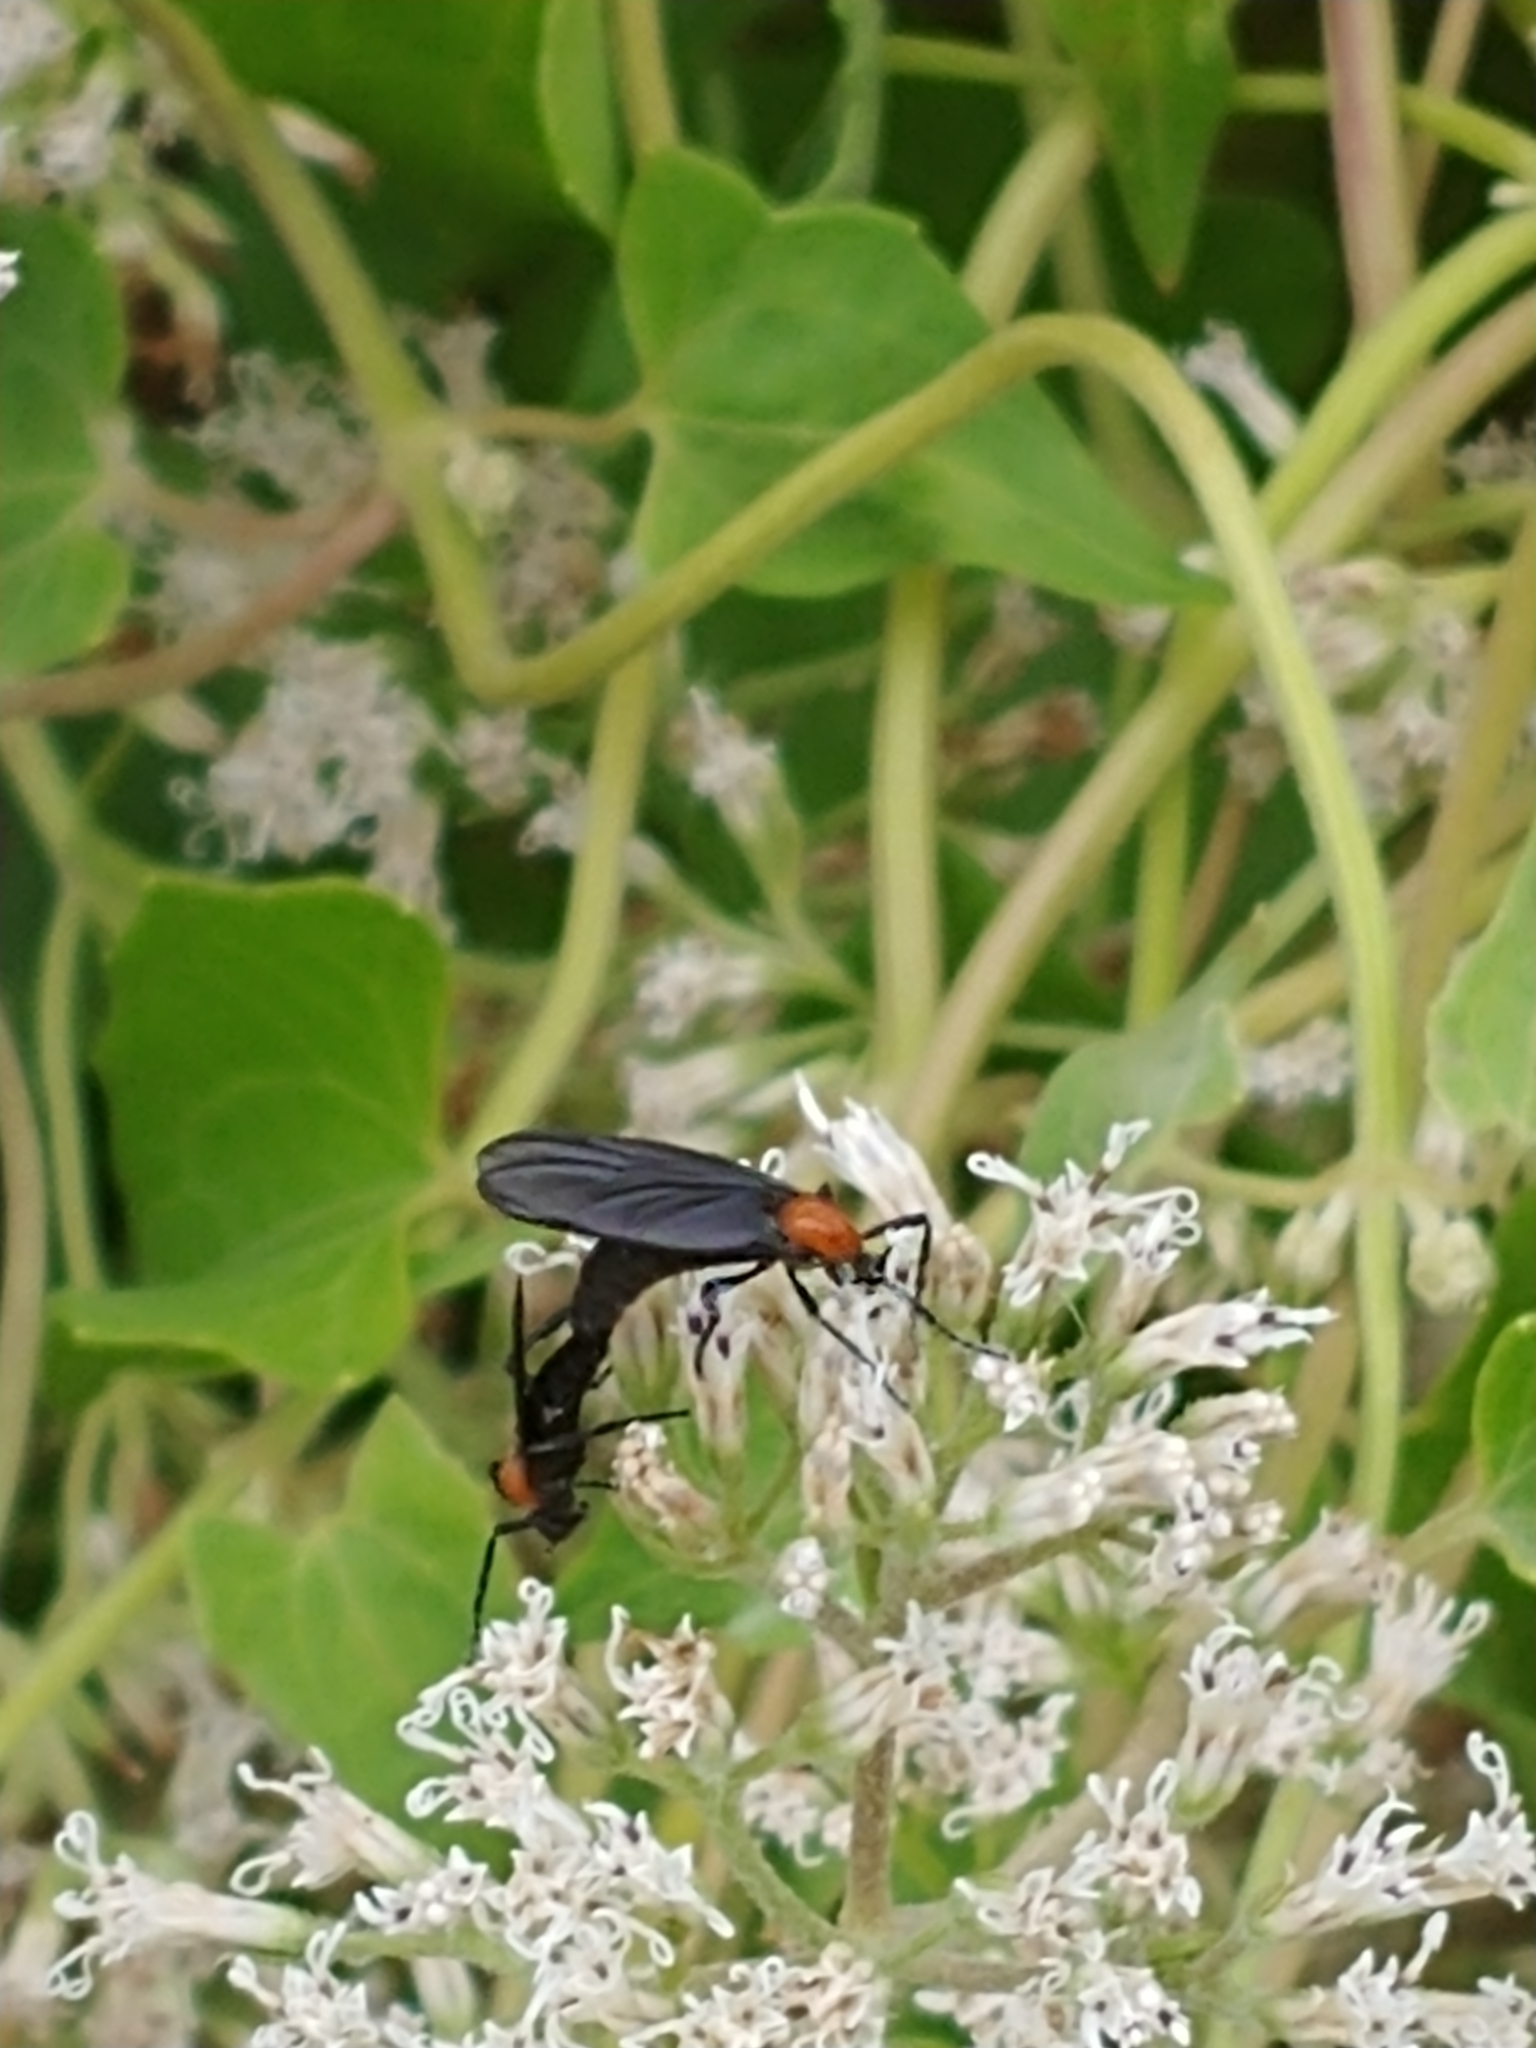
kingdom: Animalia
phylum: Arthropoda
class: Insecta
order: Diptera
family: Bibionidae
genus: Plecia
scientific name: Plecia nearctica
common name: March fly
